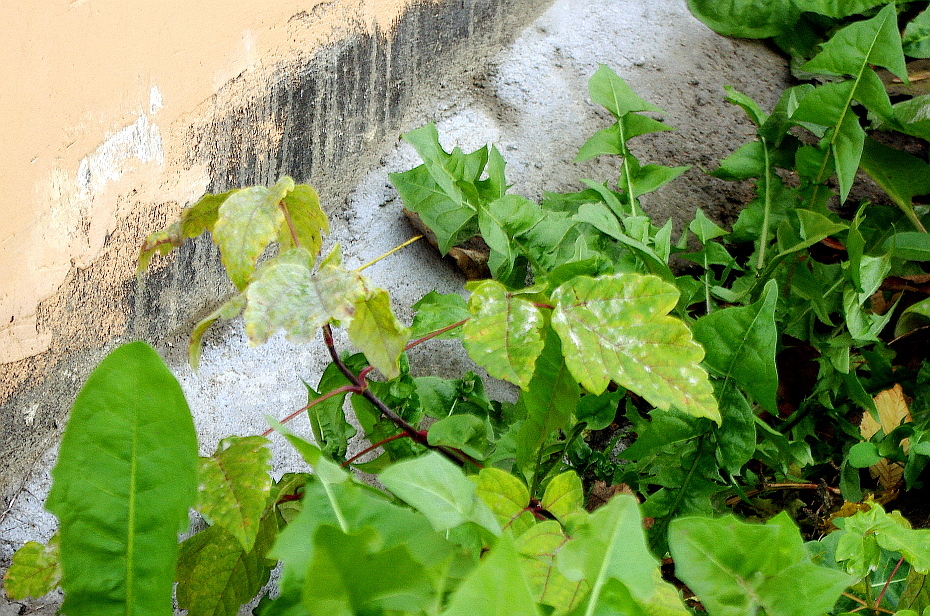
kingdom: Plantae
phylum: Tracheophyta
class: Magnoliopsida
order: Sapindales
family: Sapindaceae
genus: Acer
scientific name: Acer negundo
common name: Ashleaf maple
